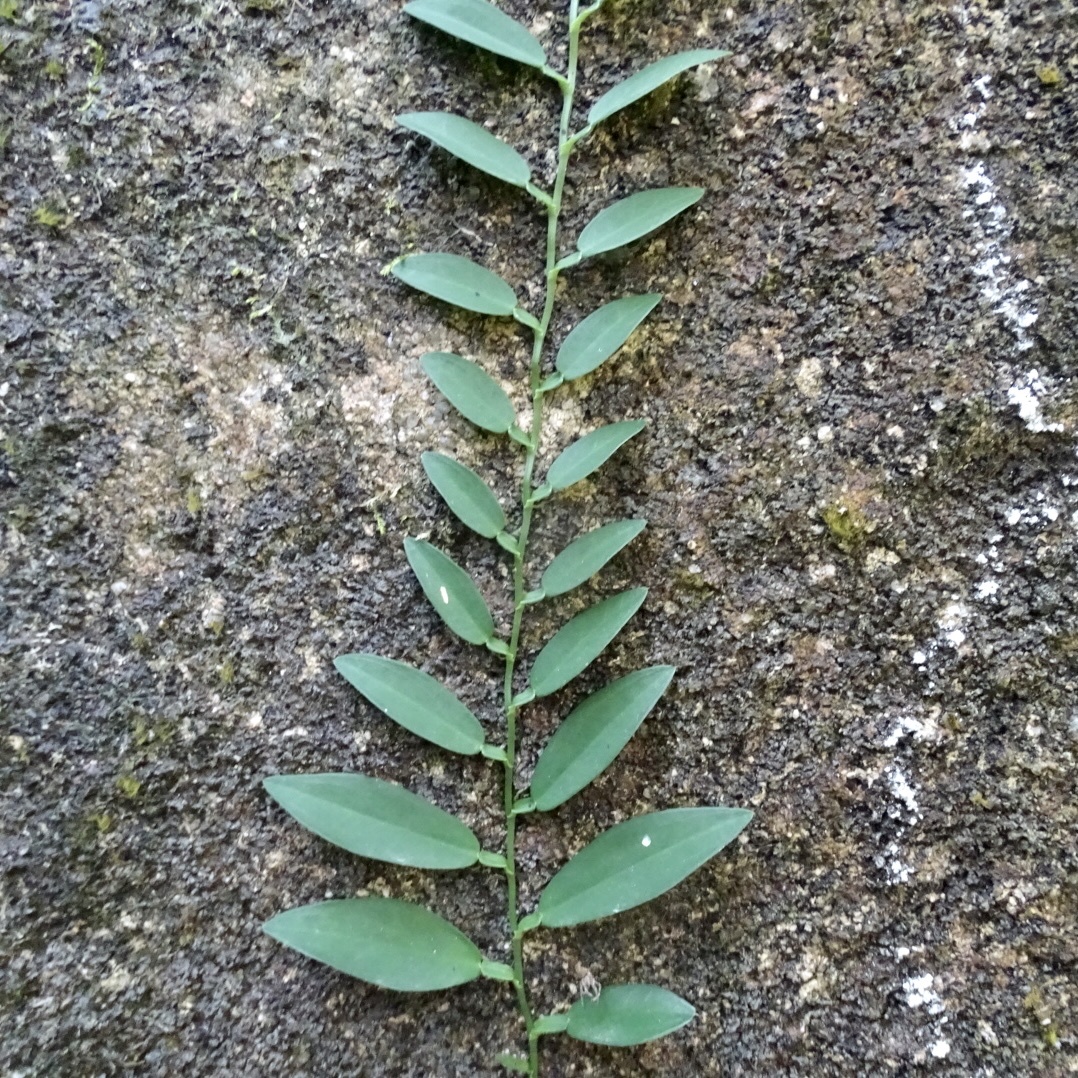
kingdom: Plantae
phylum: Tracheophyta
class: Liliopsida
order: Alismatales
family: Araceae
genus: Pothos
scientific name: Pothos chinensis
